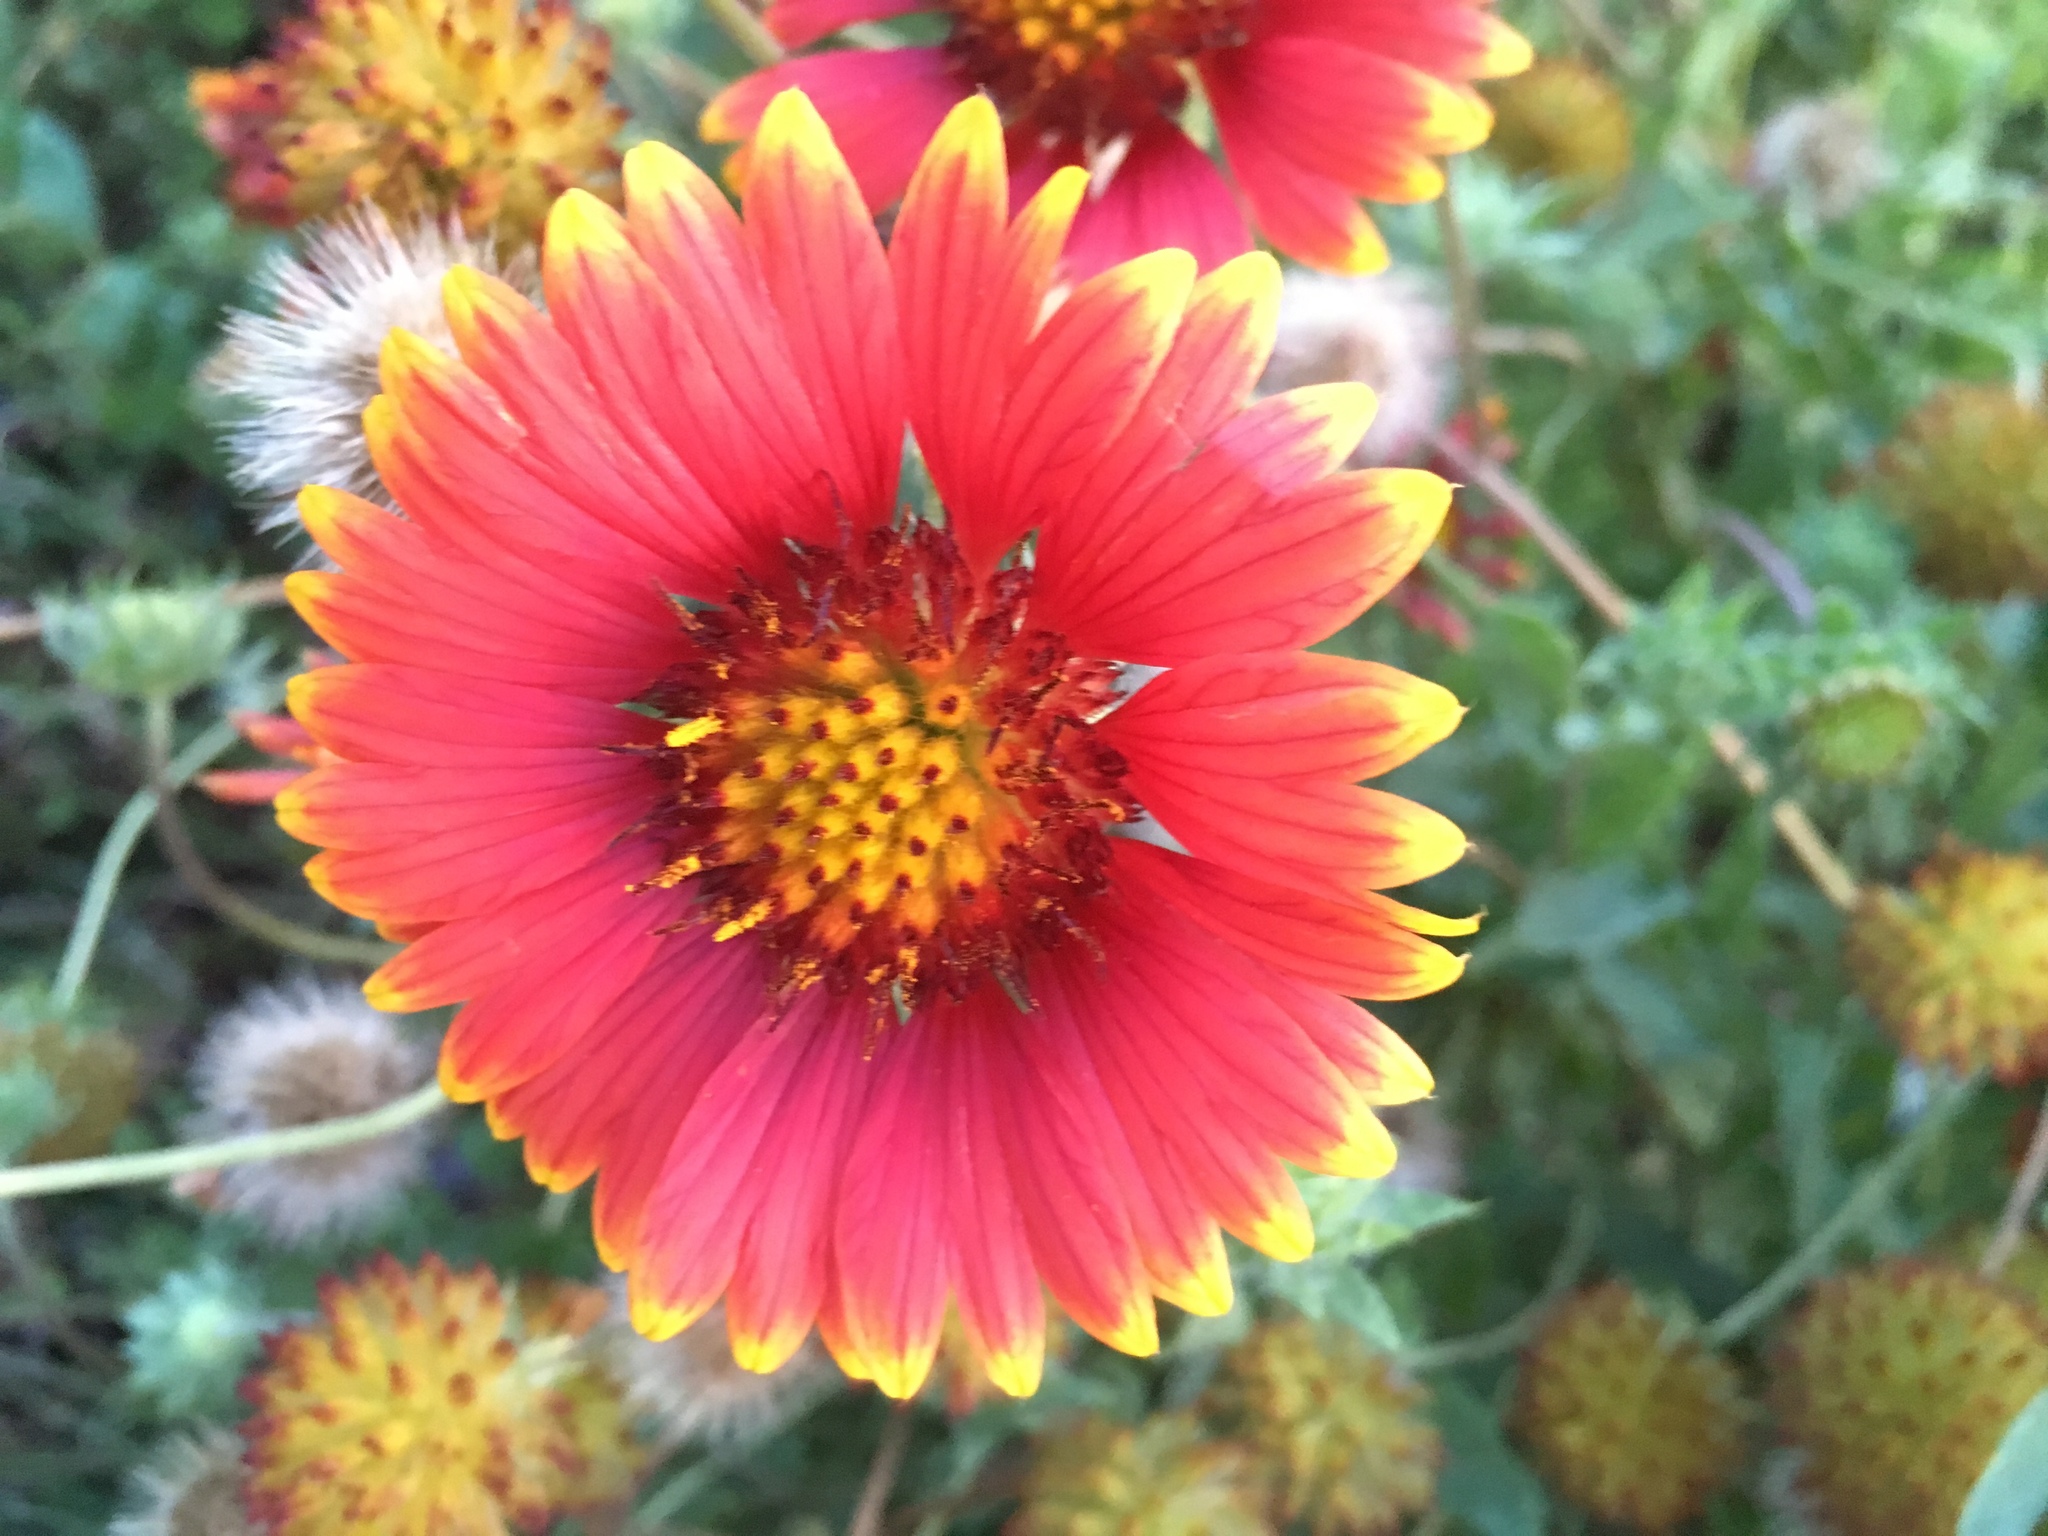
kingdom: Plantae
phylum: Tracheophyta
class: Magnoliopsida
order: Asterales
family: Asteraceae
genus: Gaillardia
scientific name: Gaillardia pulchella
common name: Firewheel
